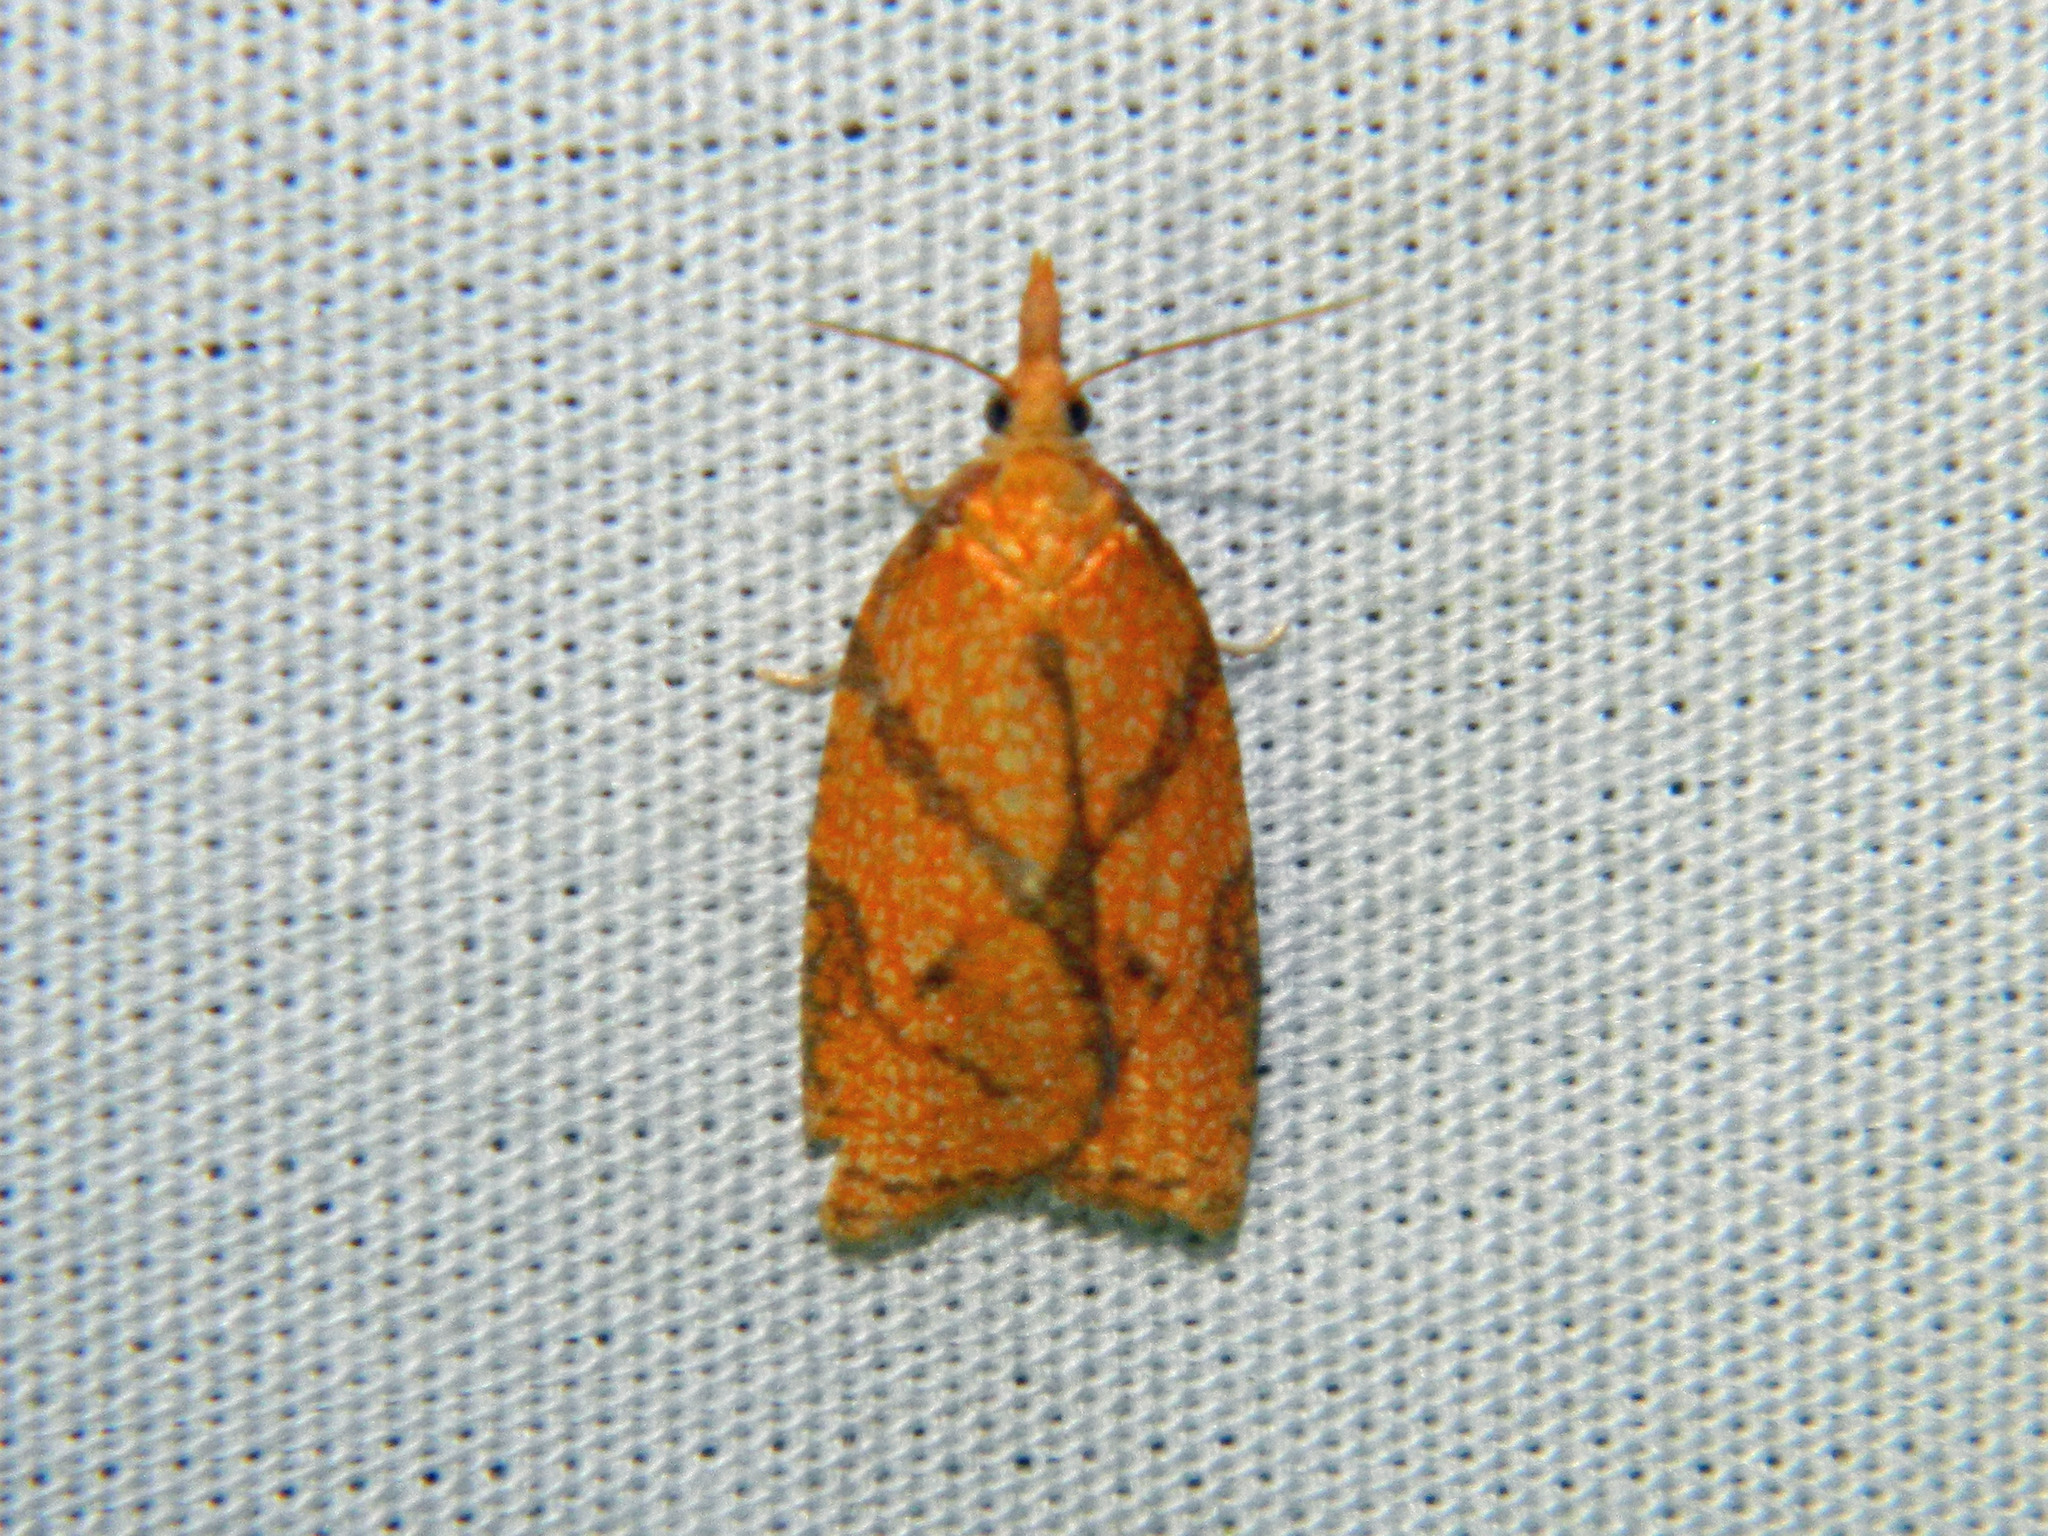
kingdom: Animalia
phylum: Arthropoda
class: Insecta
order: Lepidoptera
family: Tortricidae
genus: Cenopis
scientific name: Cenopis reticulatana
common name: Reticulated fruitworm moth
